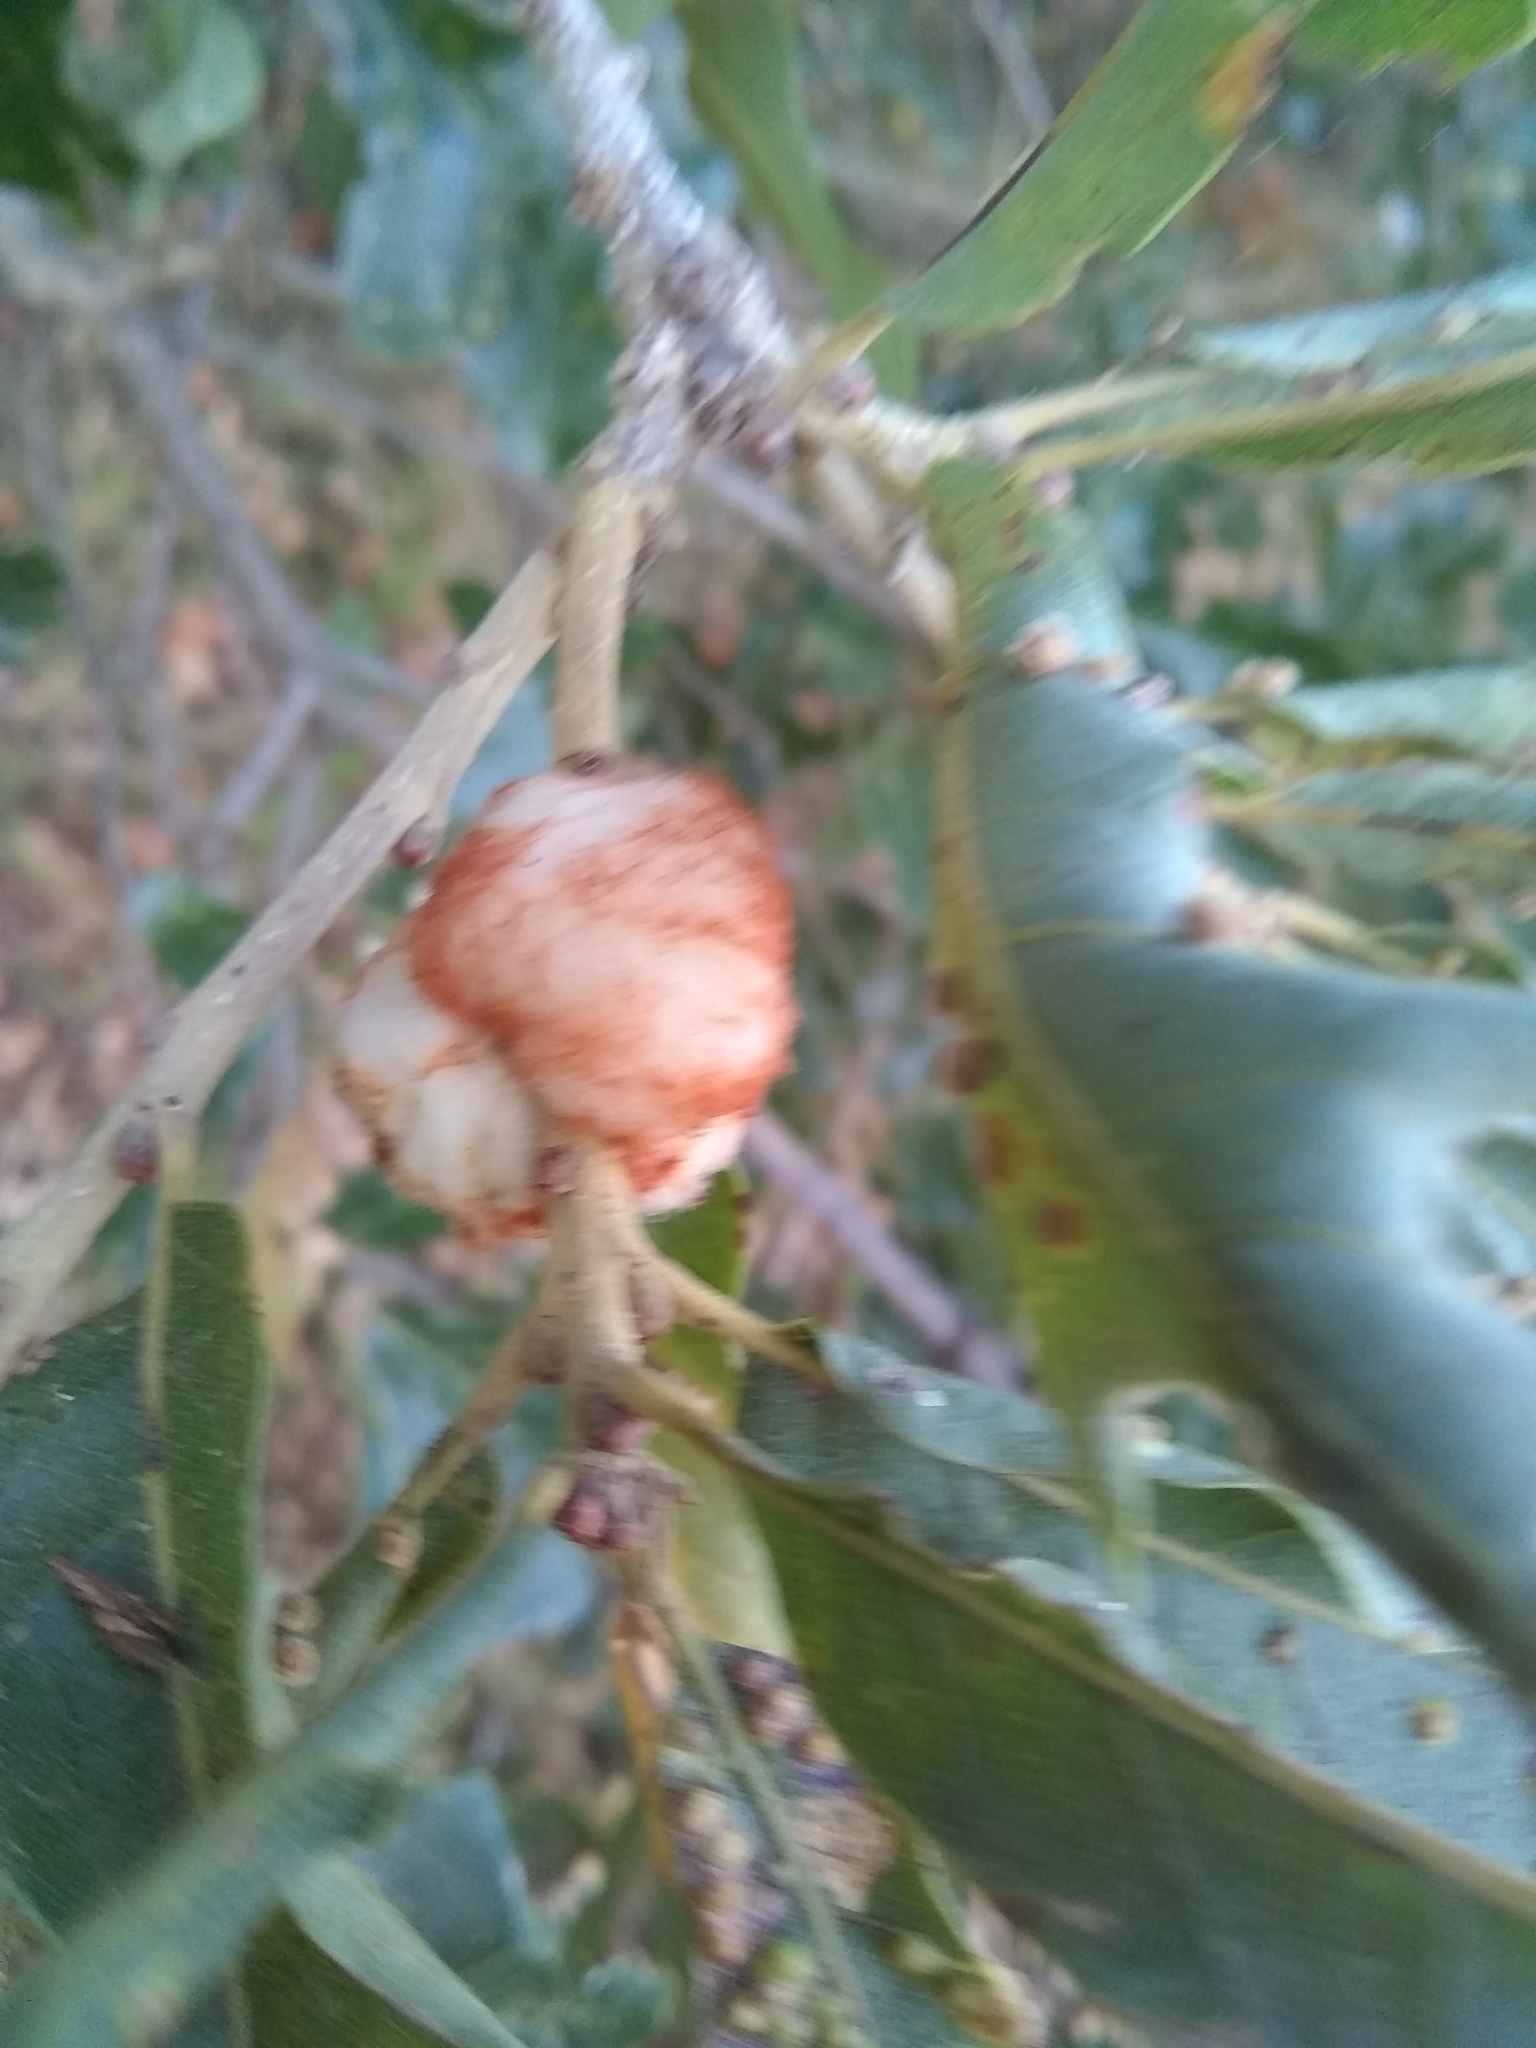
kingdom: Animalia
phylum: Arthropoda
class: Insecta
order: Hymenoptera
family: Cynipidae
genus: Striatoandricus
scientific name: Striatoandricus aciculatus
